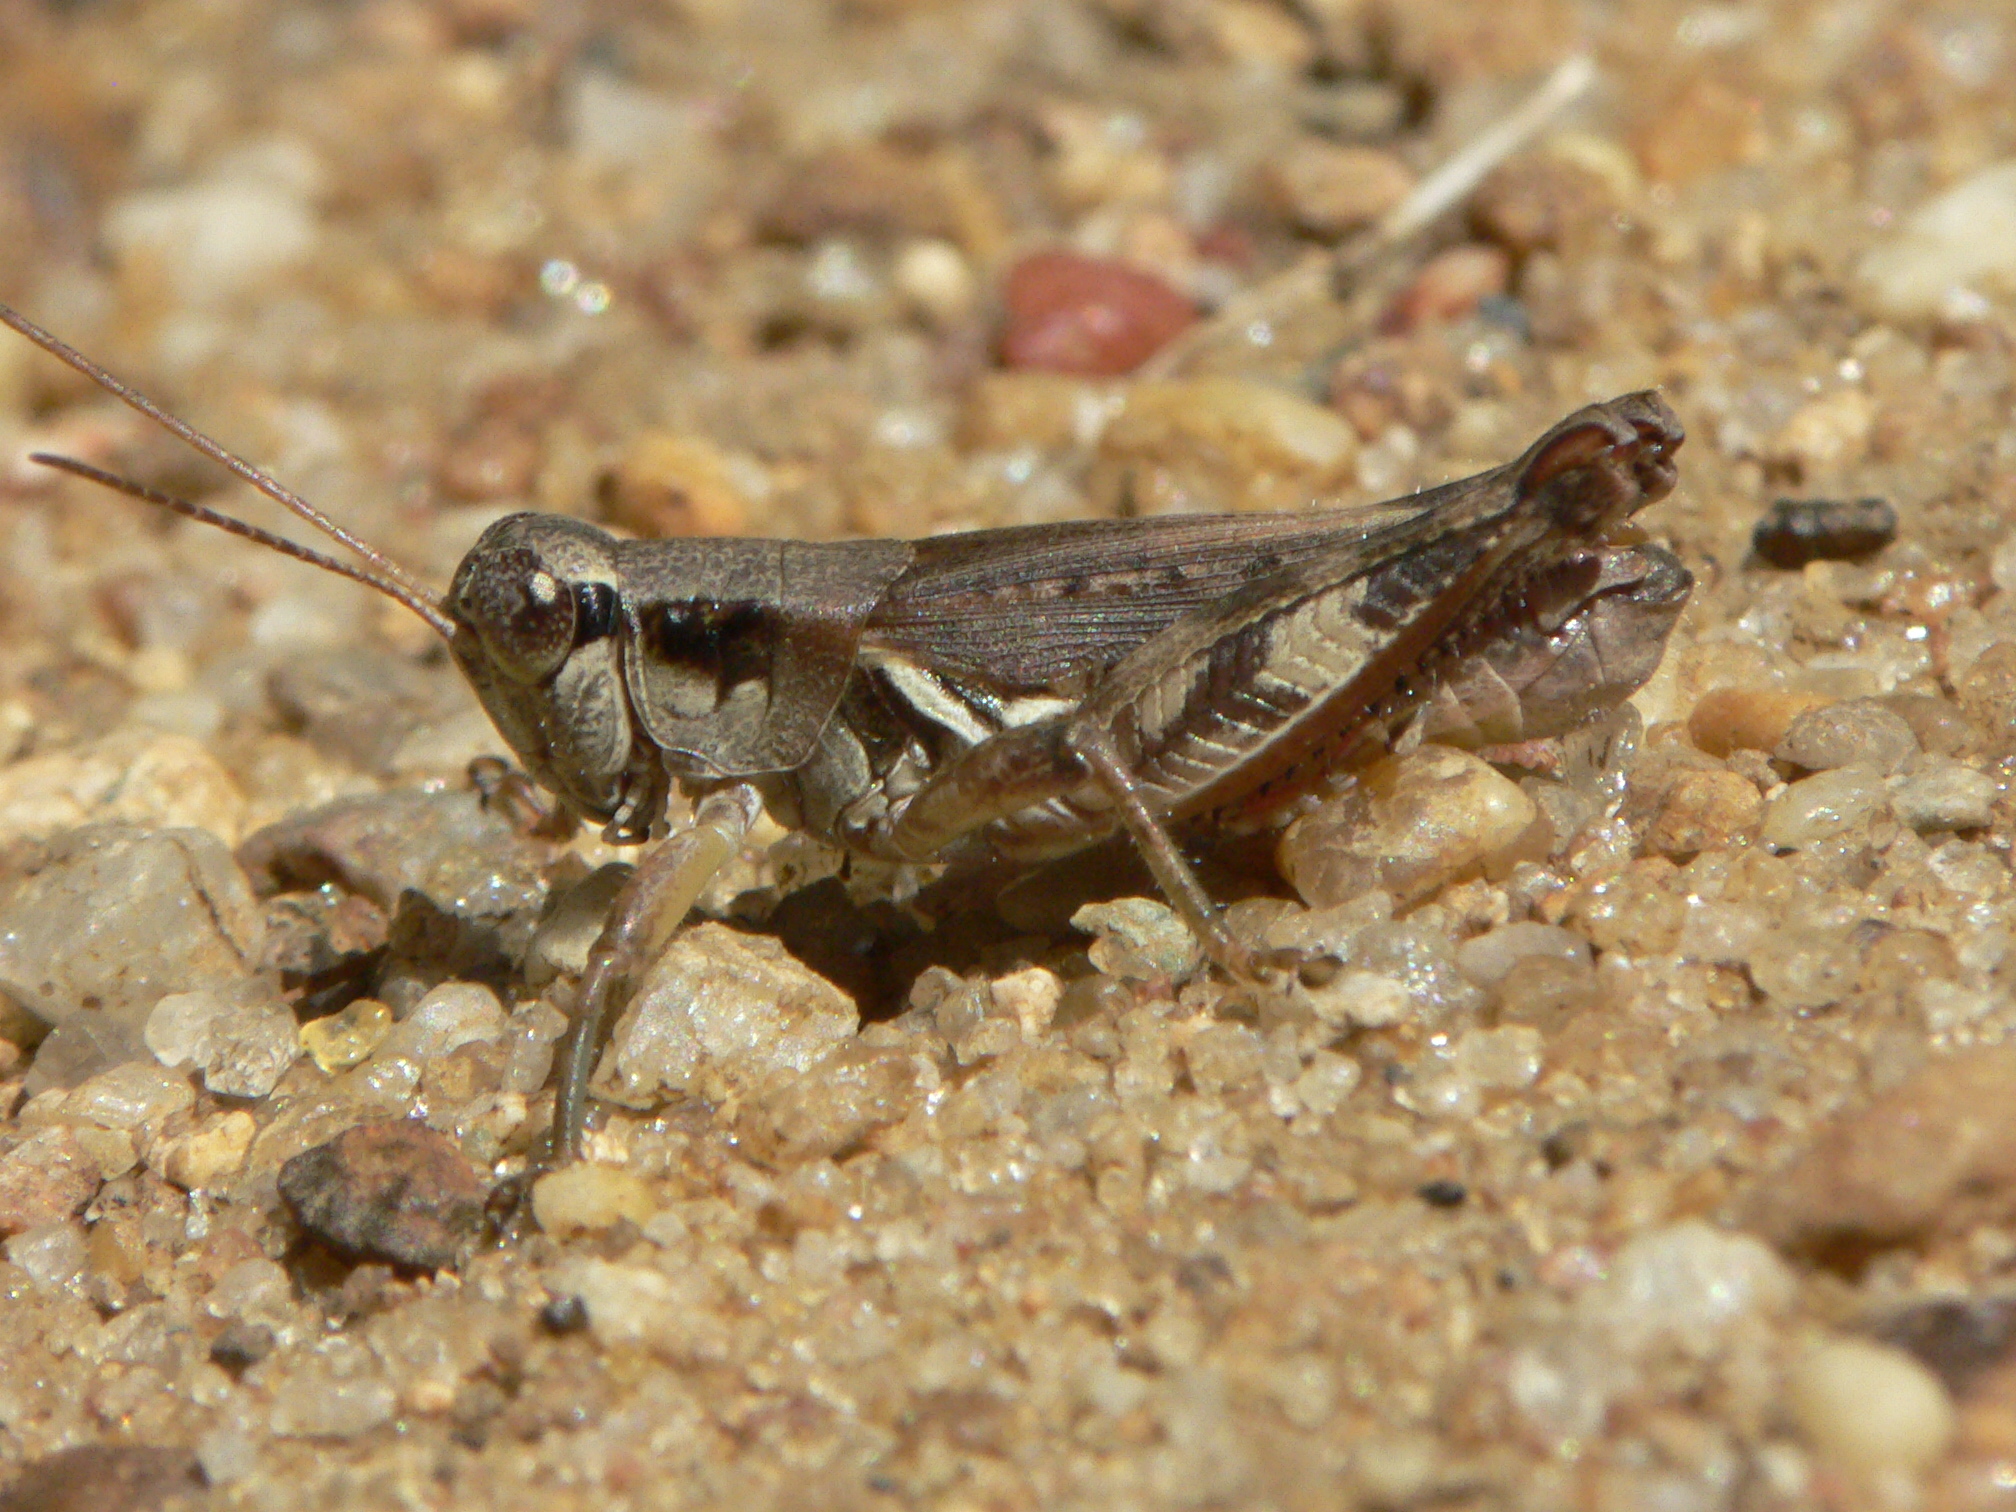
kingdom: Animalia
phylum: Arthropoda
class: Insecta
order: Orthoptera
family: Acrididae
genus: Melanoplus
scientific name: Melanoplus fasciatus
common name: Huckleberry locust
